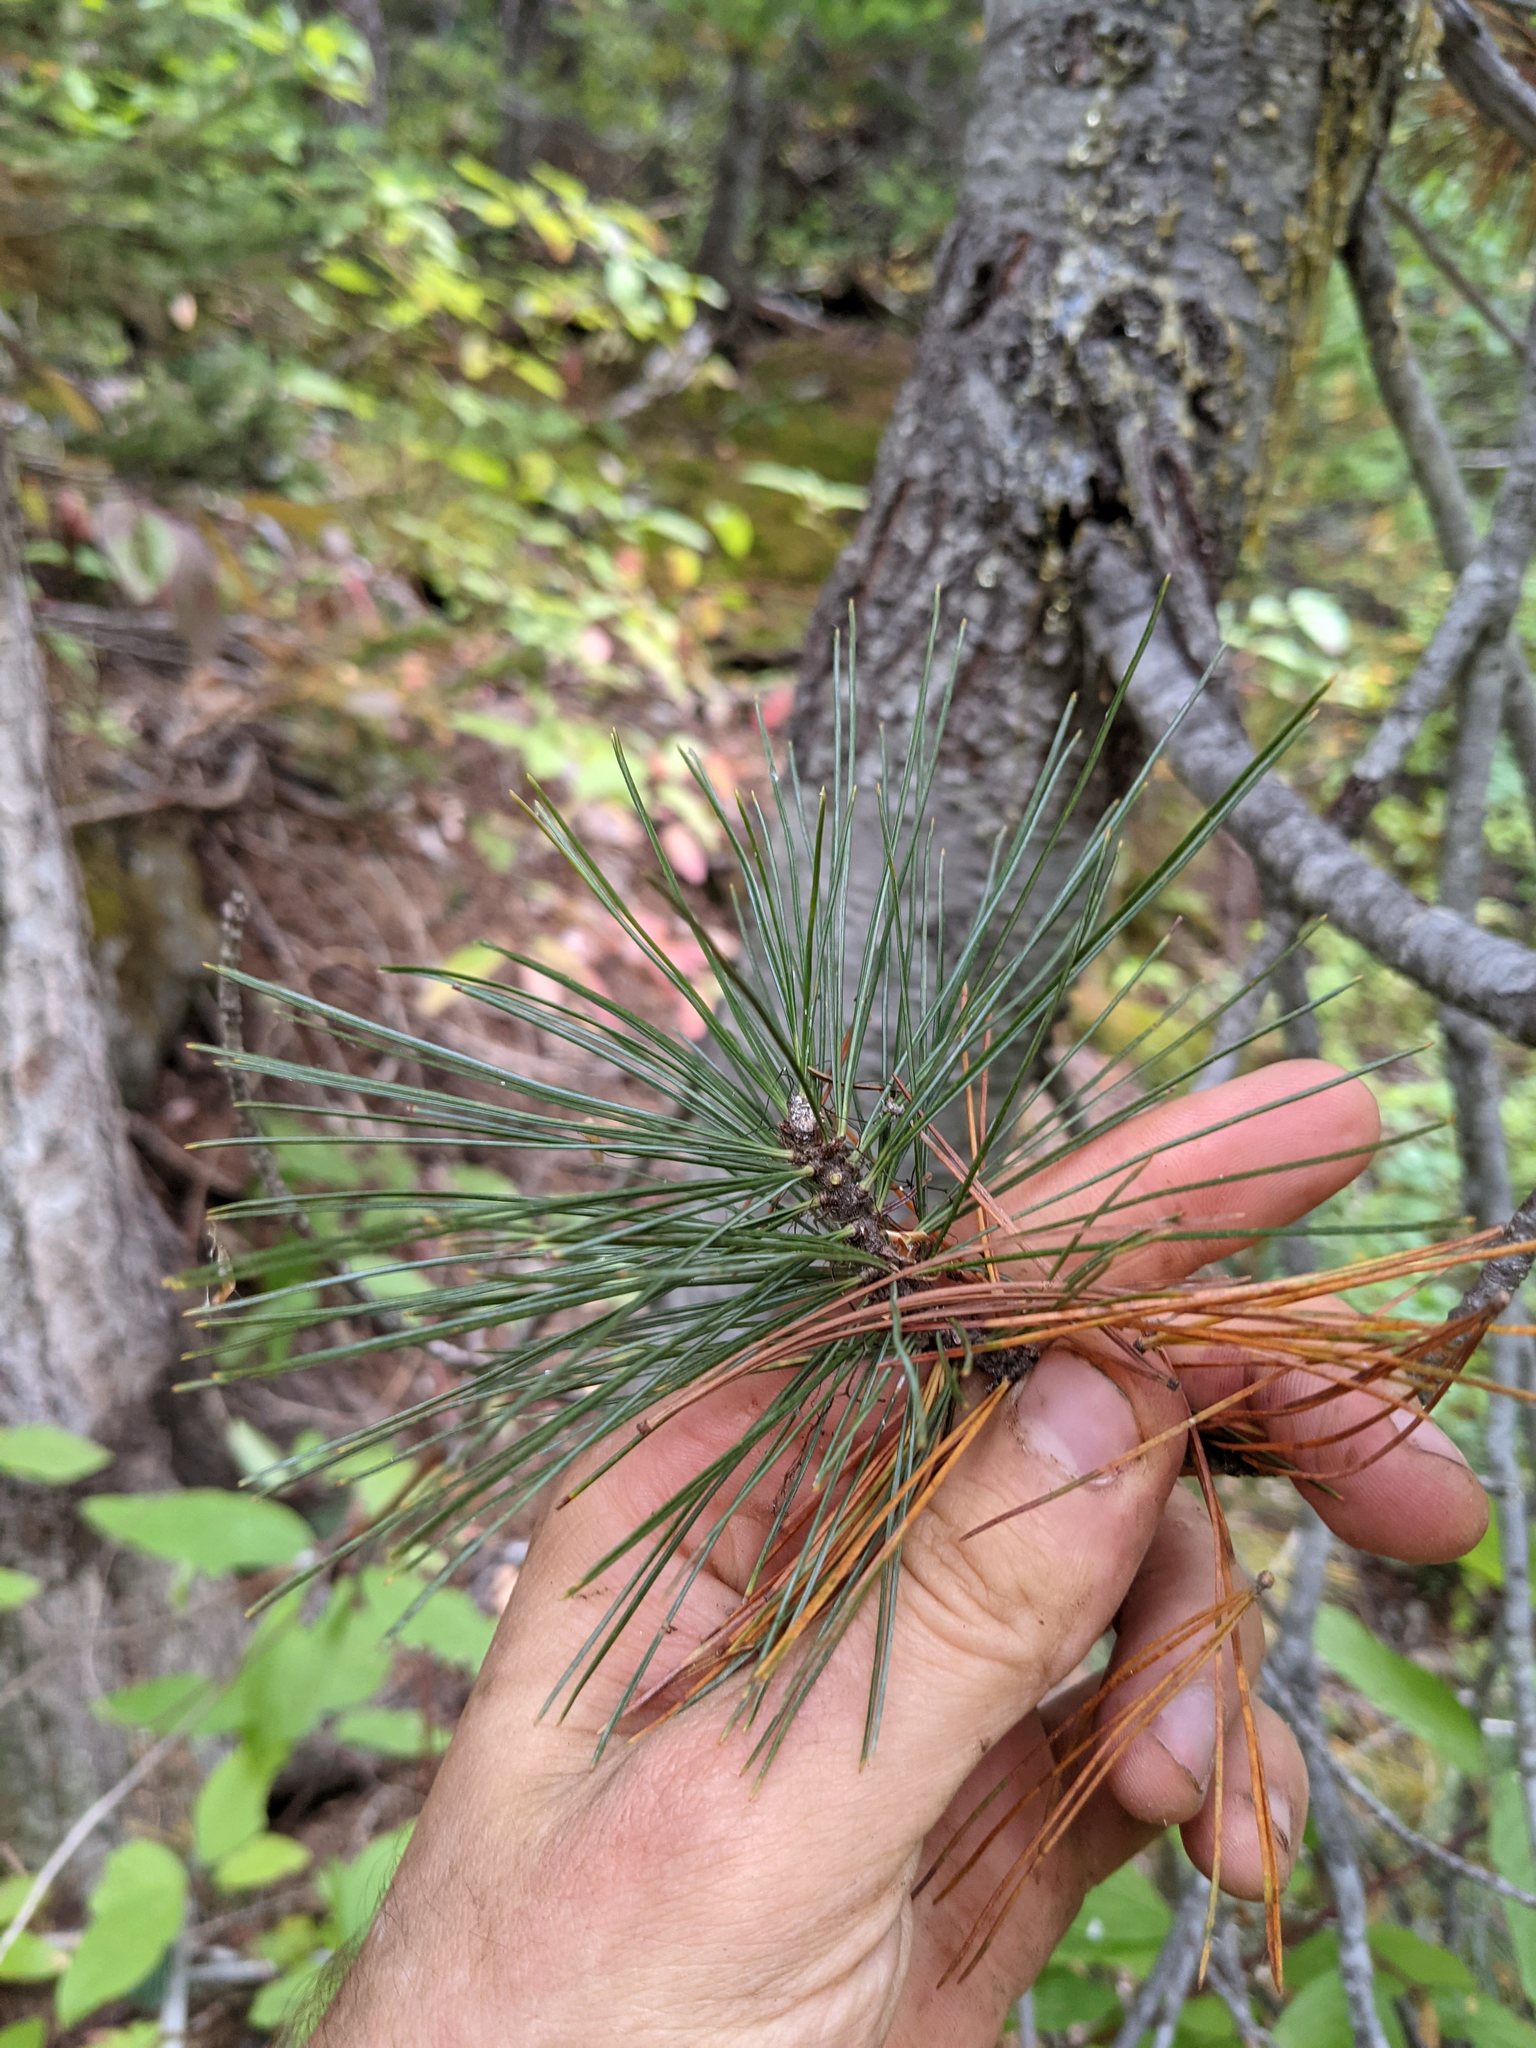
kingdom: Plantae
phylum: Tracheophyta
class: Pinopsida
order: Pinales
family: Pinaceae
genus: Pinus
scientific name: Pinus monticola
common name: Western white pine
